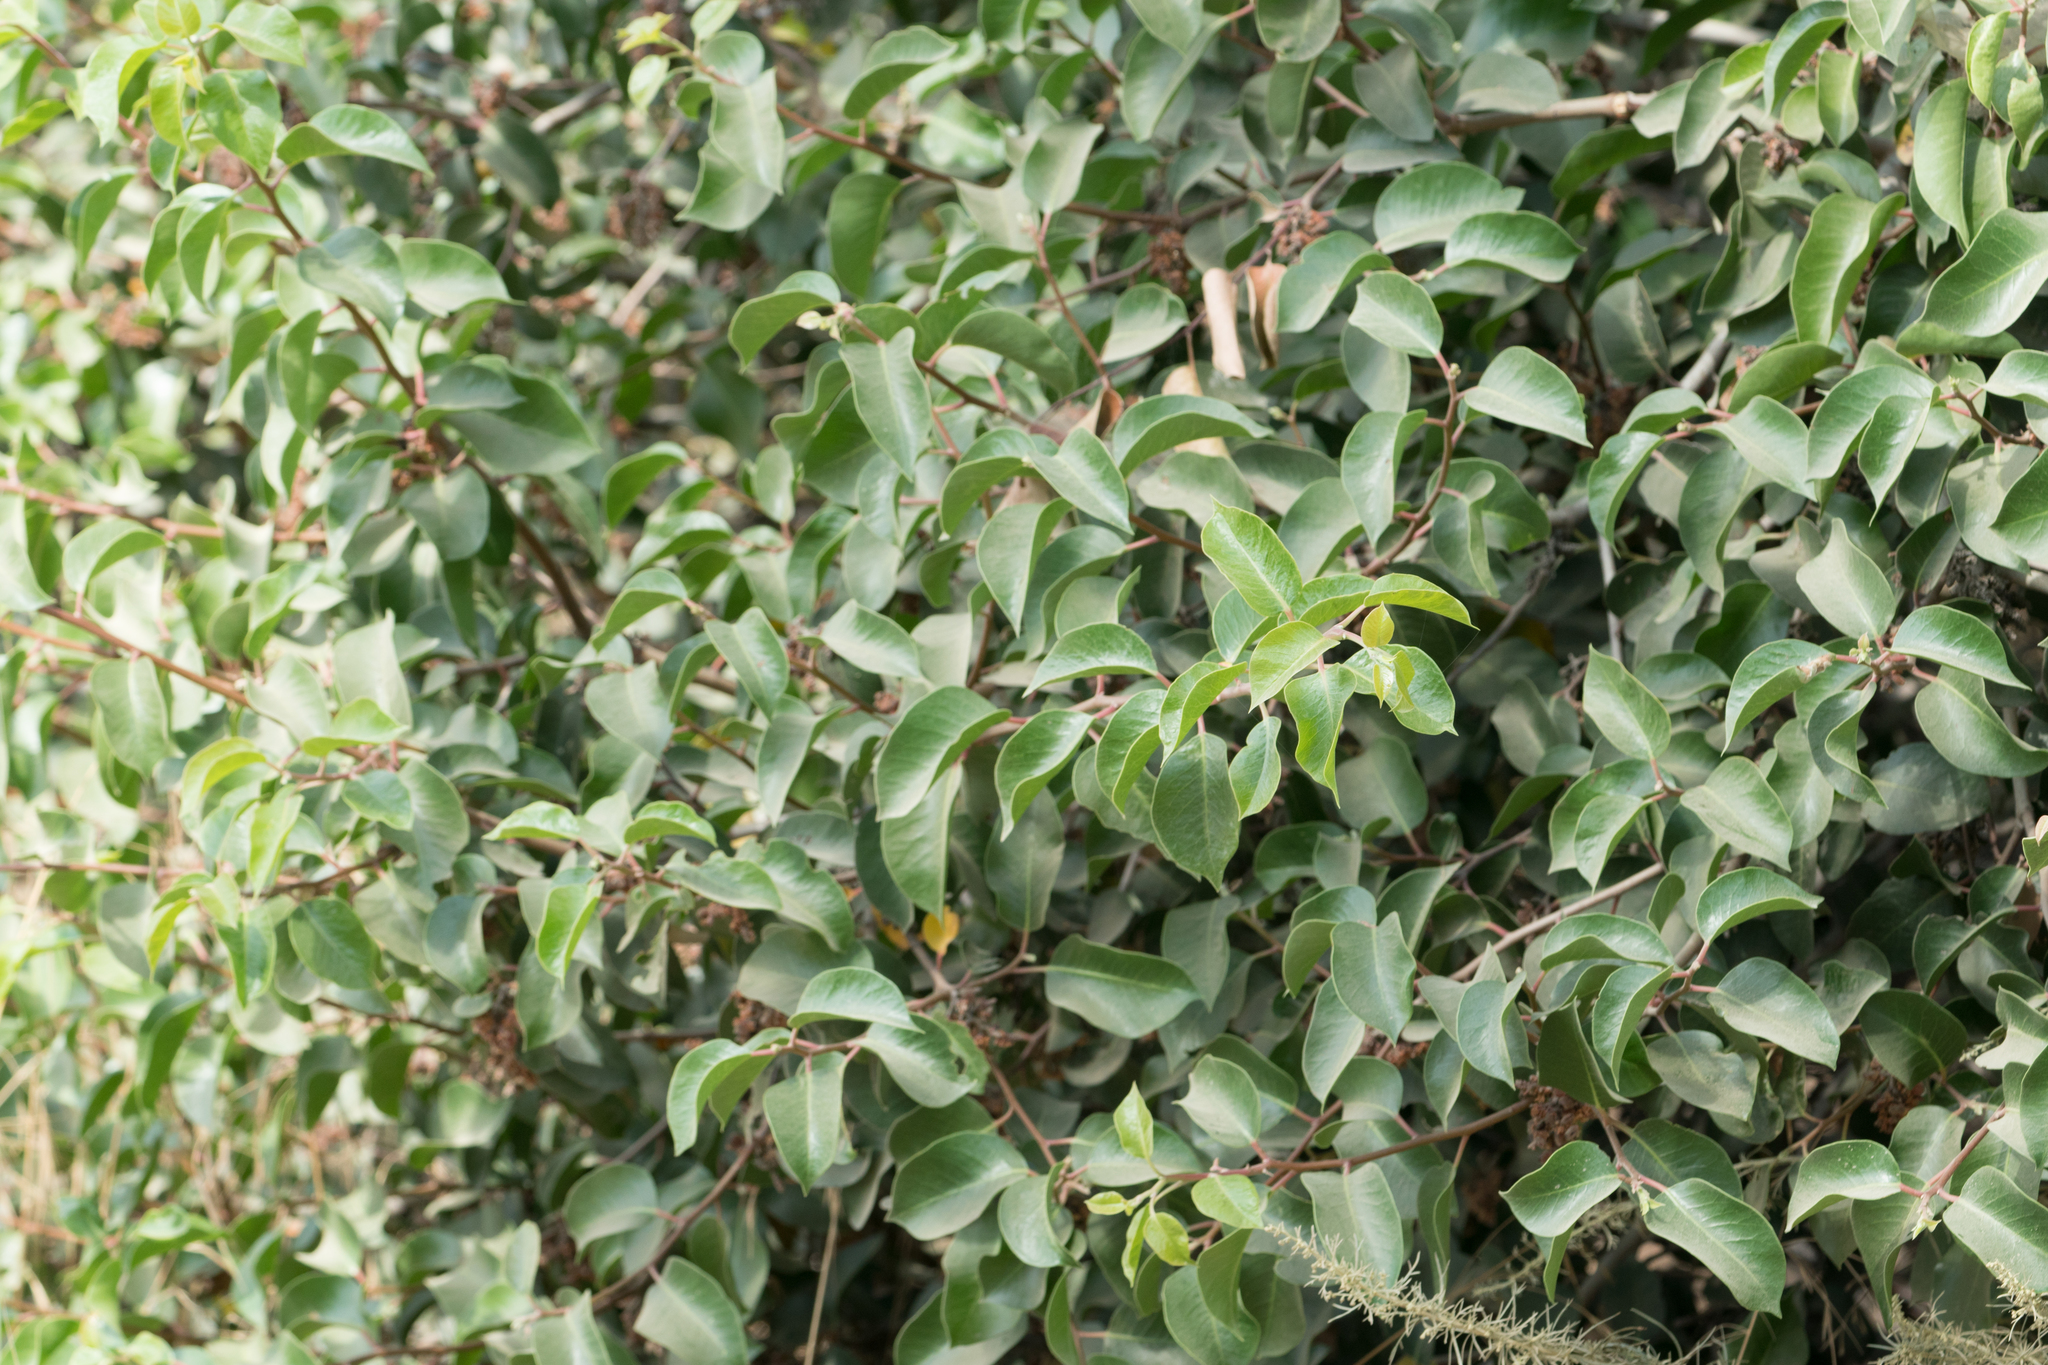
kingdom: Plantae
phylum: Tracheophyta
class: Magnoliopsida
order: Sapindales
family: Anacardiaceae
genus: Rhus
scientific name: Rhus ovata
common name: Sugar sumac
